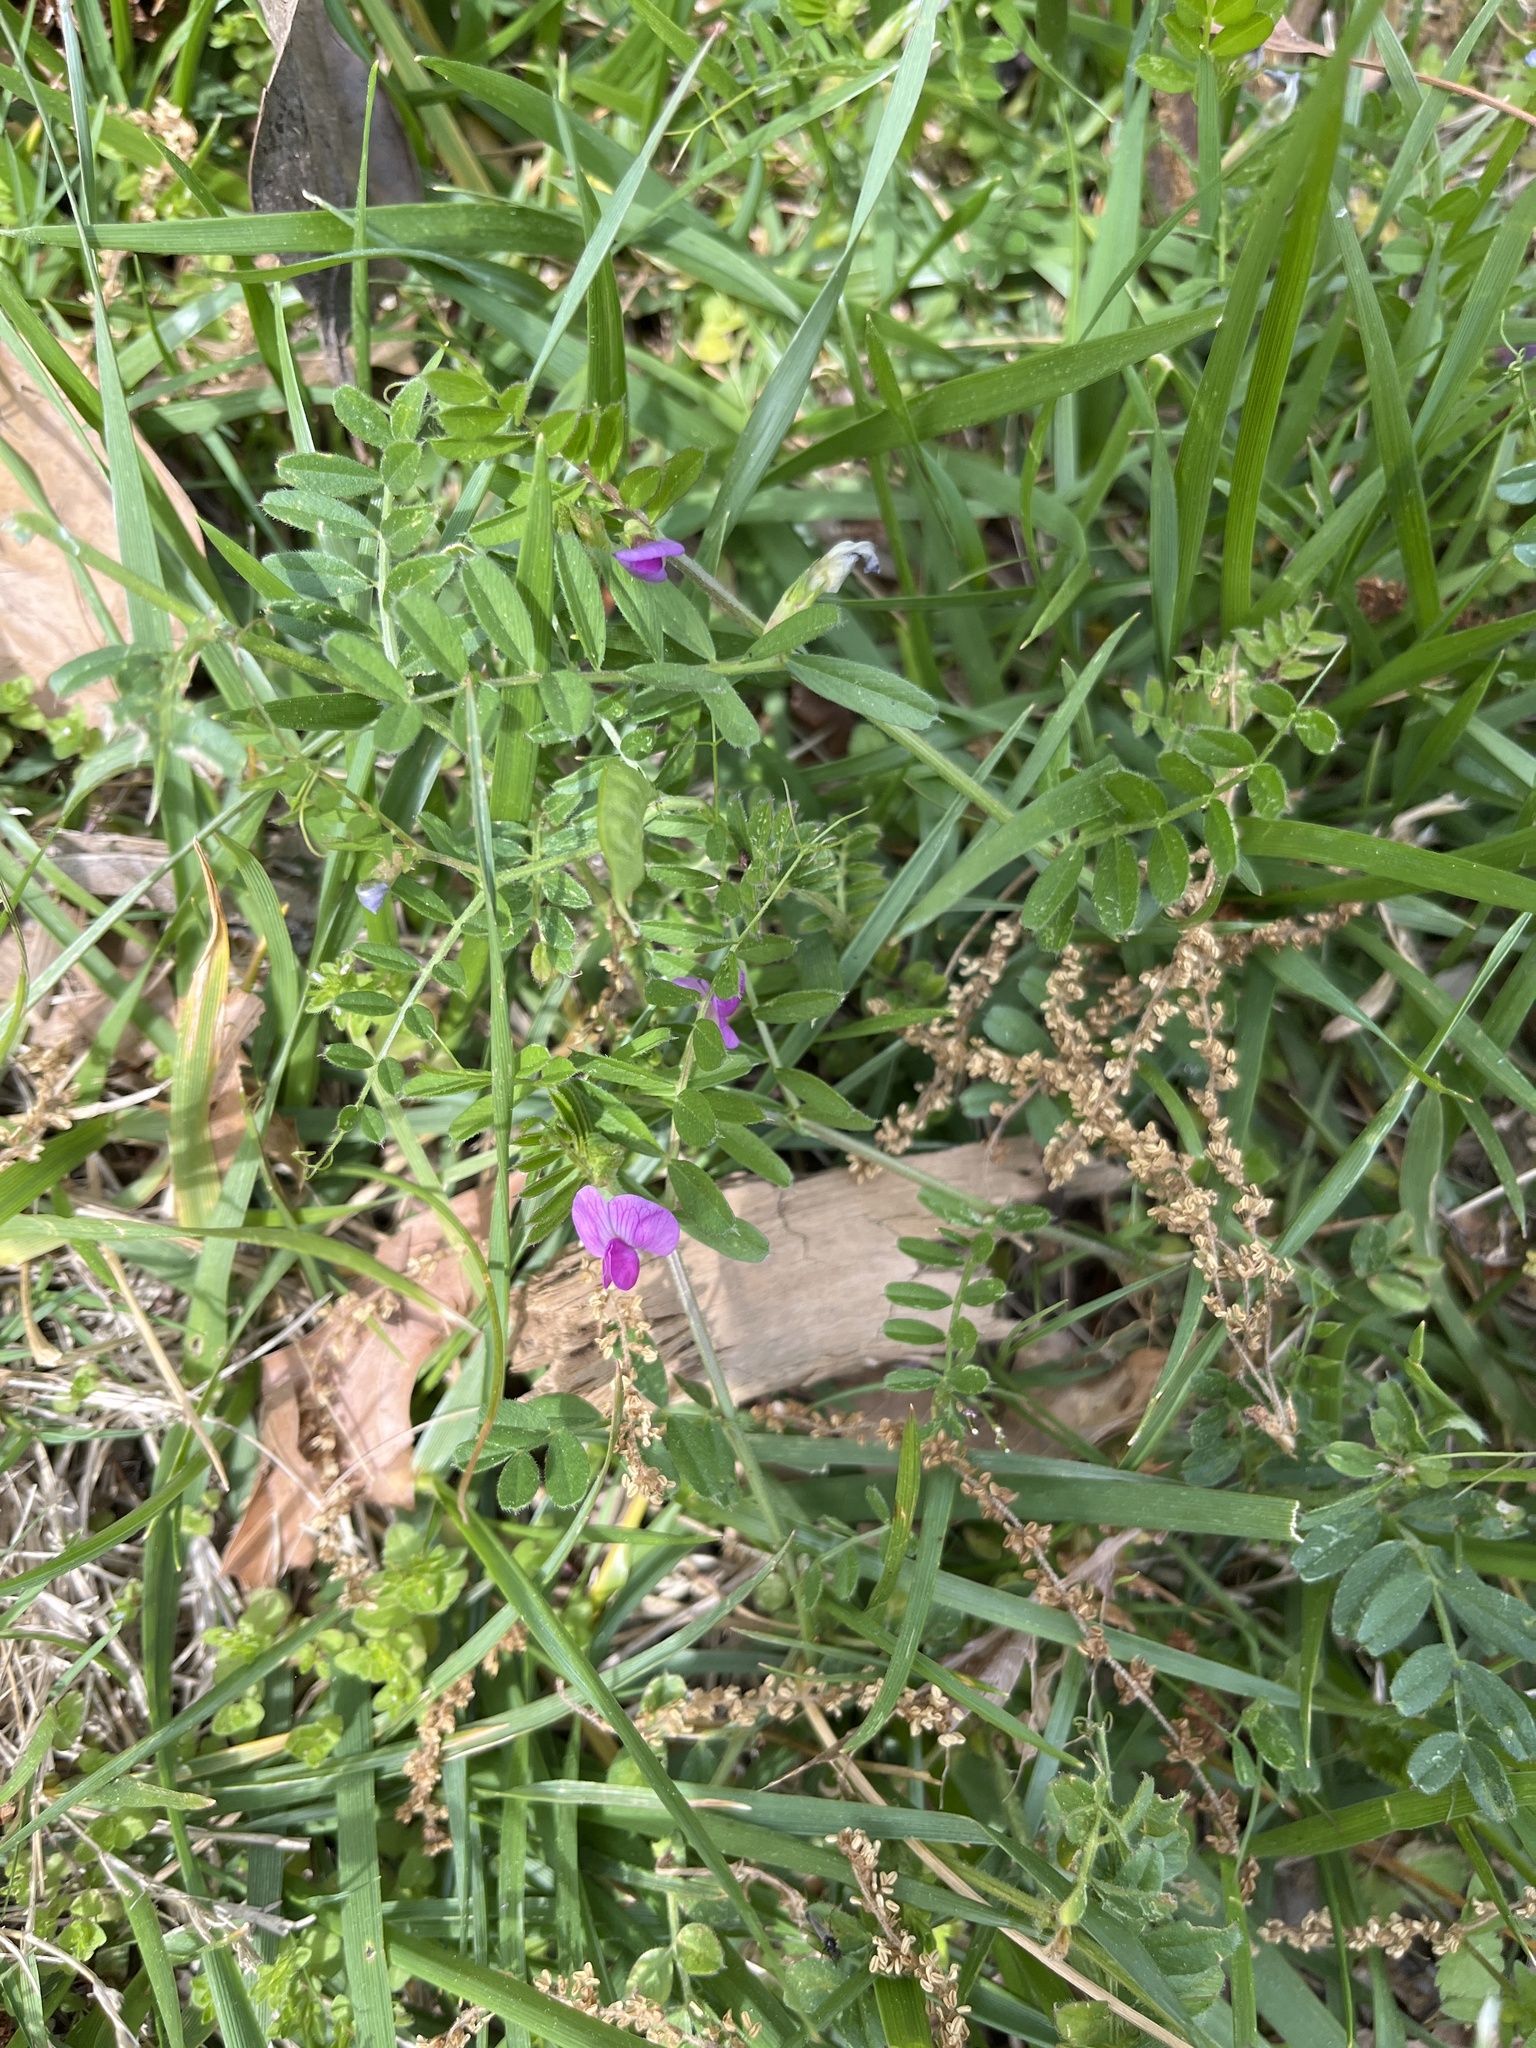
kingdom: Plantae
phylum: Tracheophyta
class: Magnoliopsida
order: Fabales
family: Fabaceae
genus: Vicia
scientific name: Vicia sativa
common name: Garden vetch
